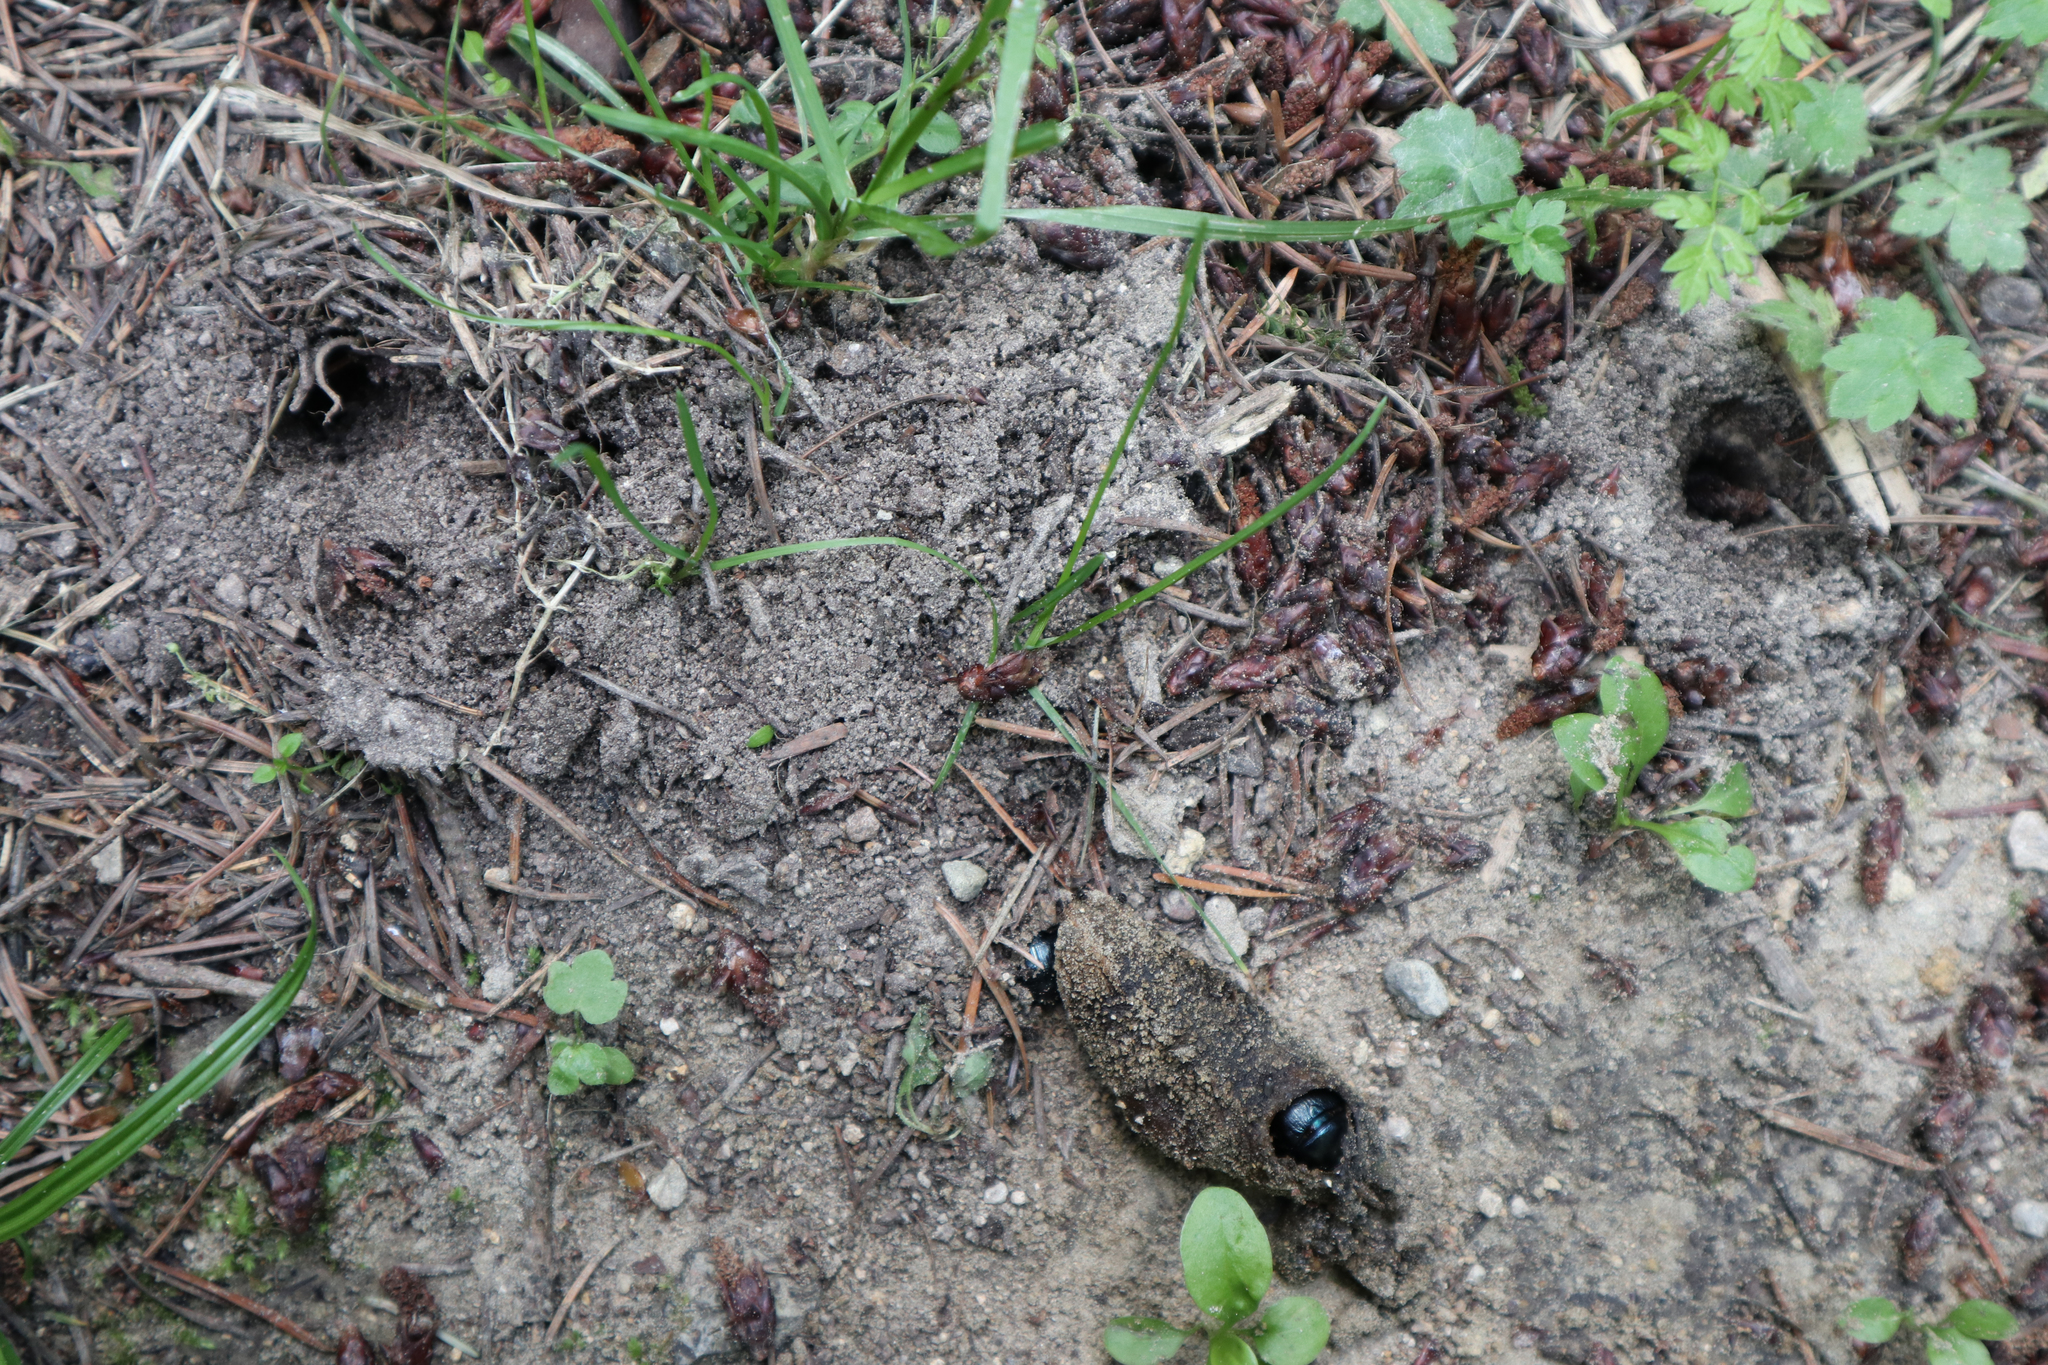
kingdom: Animalia
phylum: Arthropoda
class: Insecta
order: Coleoptera
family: Geotrupidae
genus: Anoplotrupes
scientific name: Anoplotrupes stercorosus
